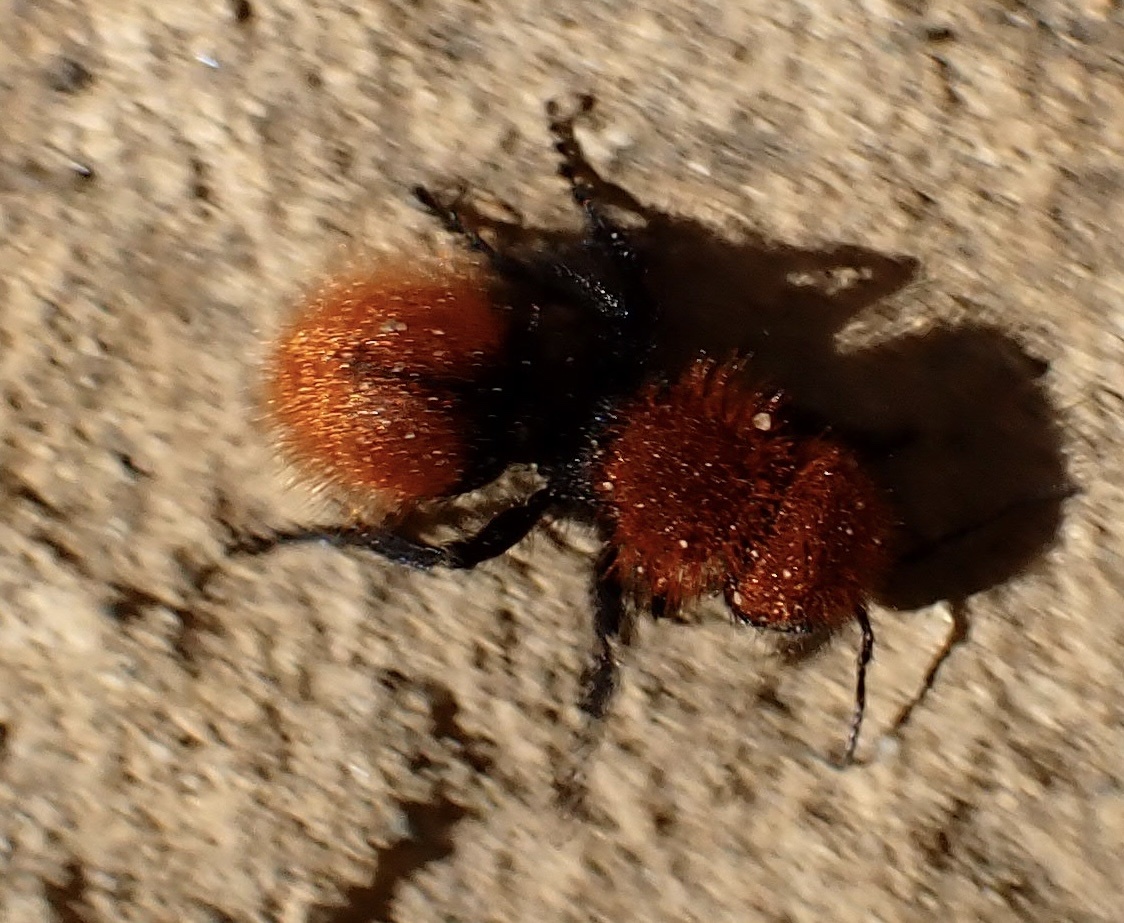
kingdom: Animalia
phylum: Arthropoda
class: Insecta
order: Hymenoptera
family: Mutillidae
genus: Dasymutilla
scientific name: Dasymutilla
